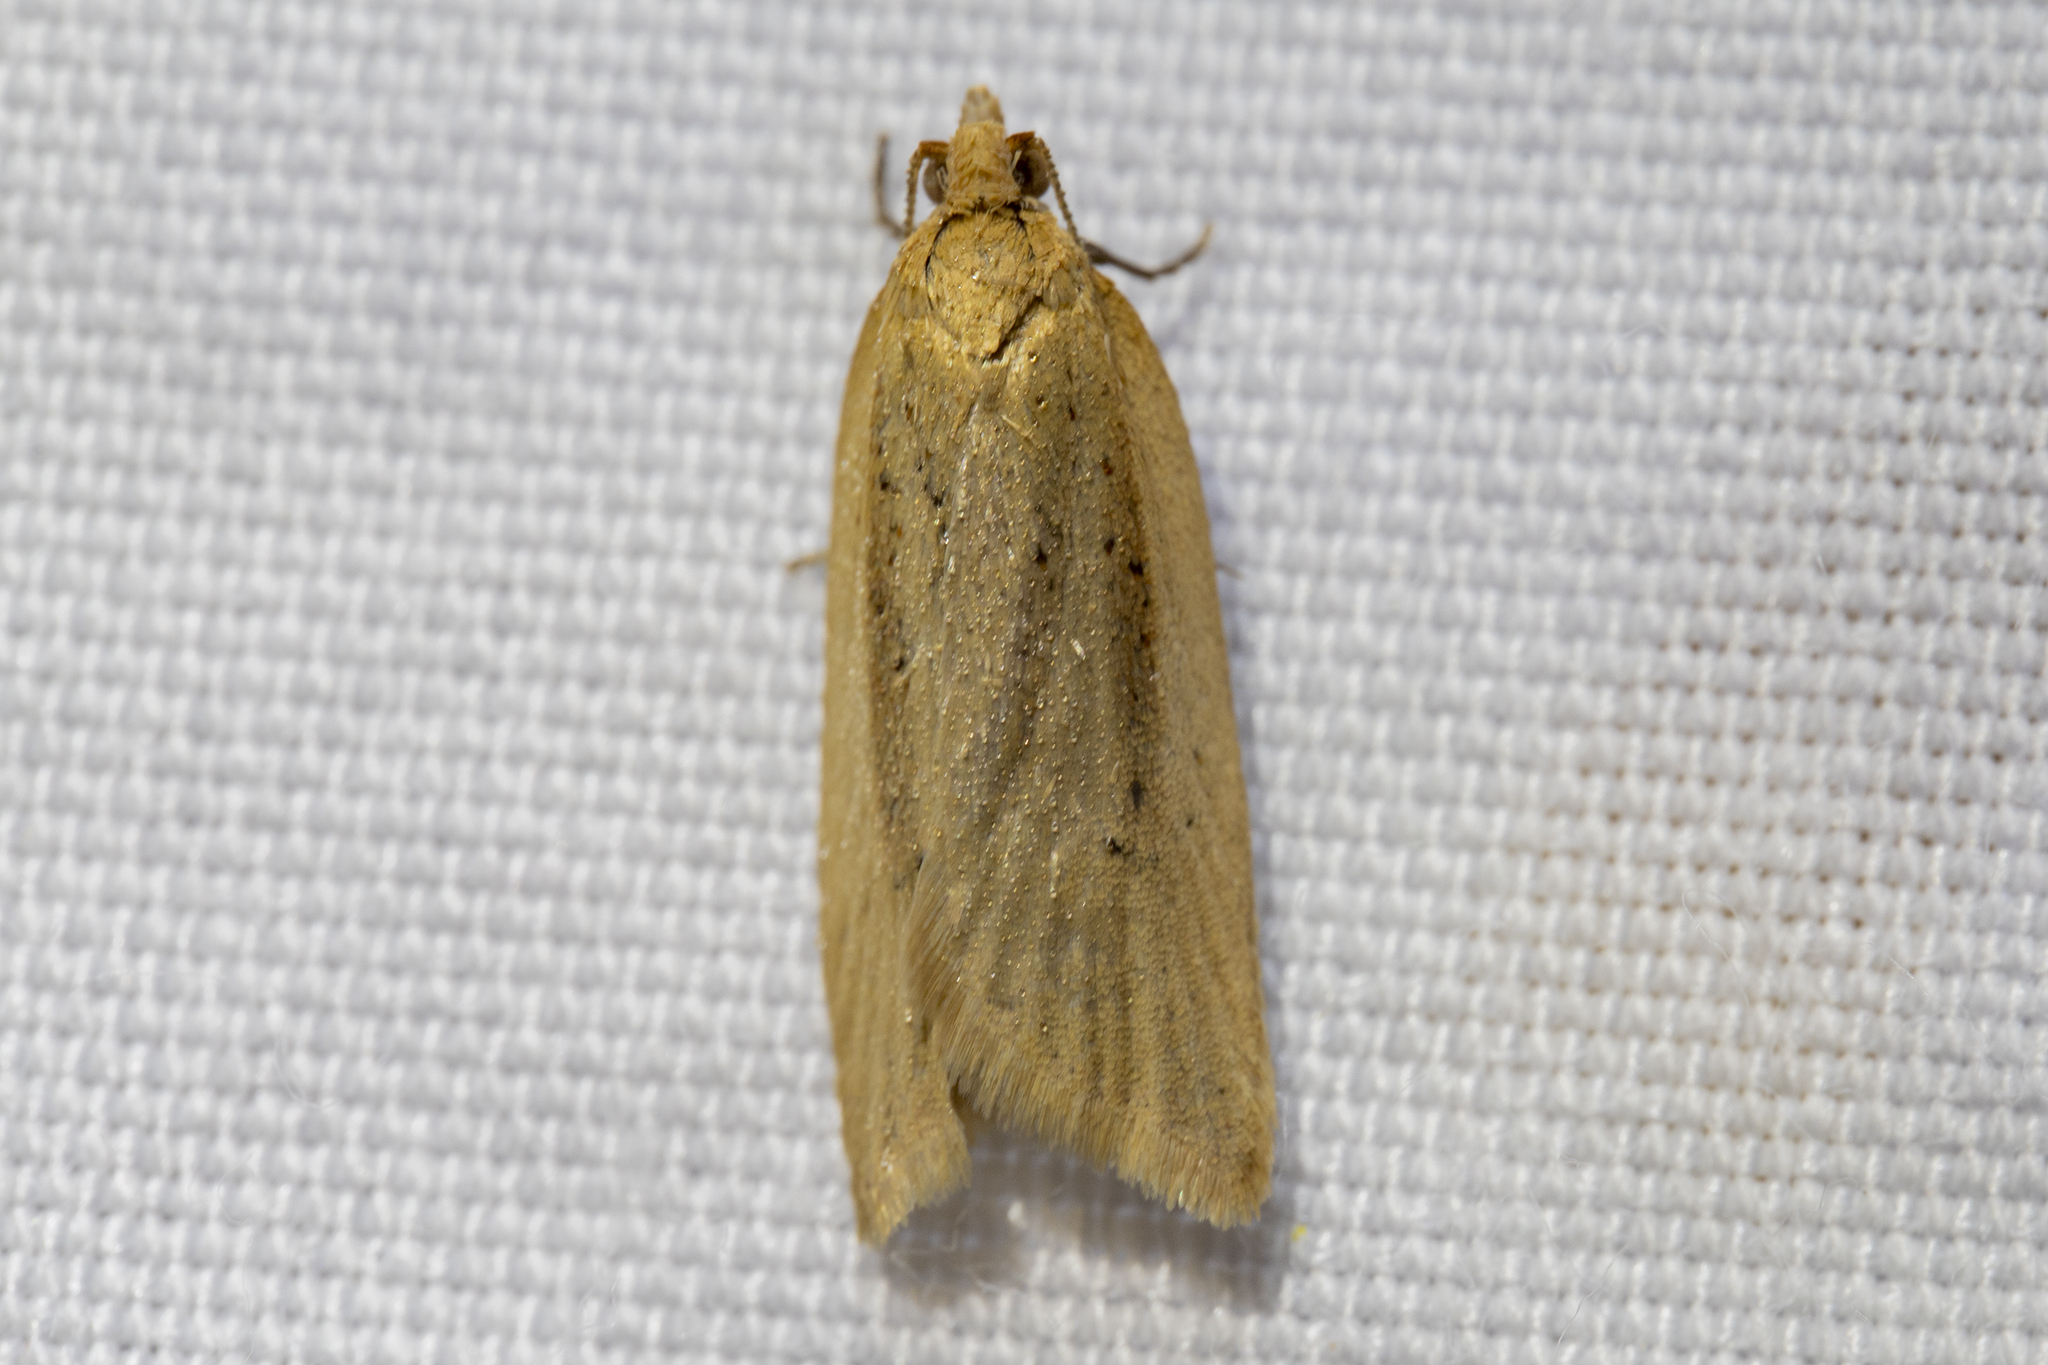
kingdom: Animalia
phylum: Arthropoda
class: Insecta
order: Lepidoptera
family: Tortricidae
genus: Clepsis
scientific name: Clepsis
